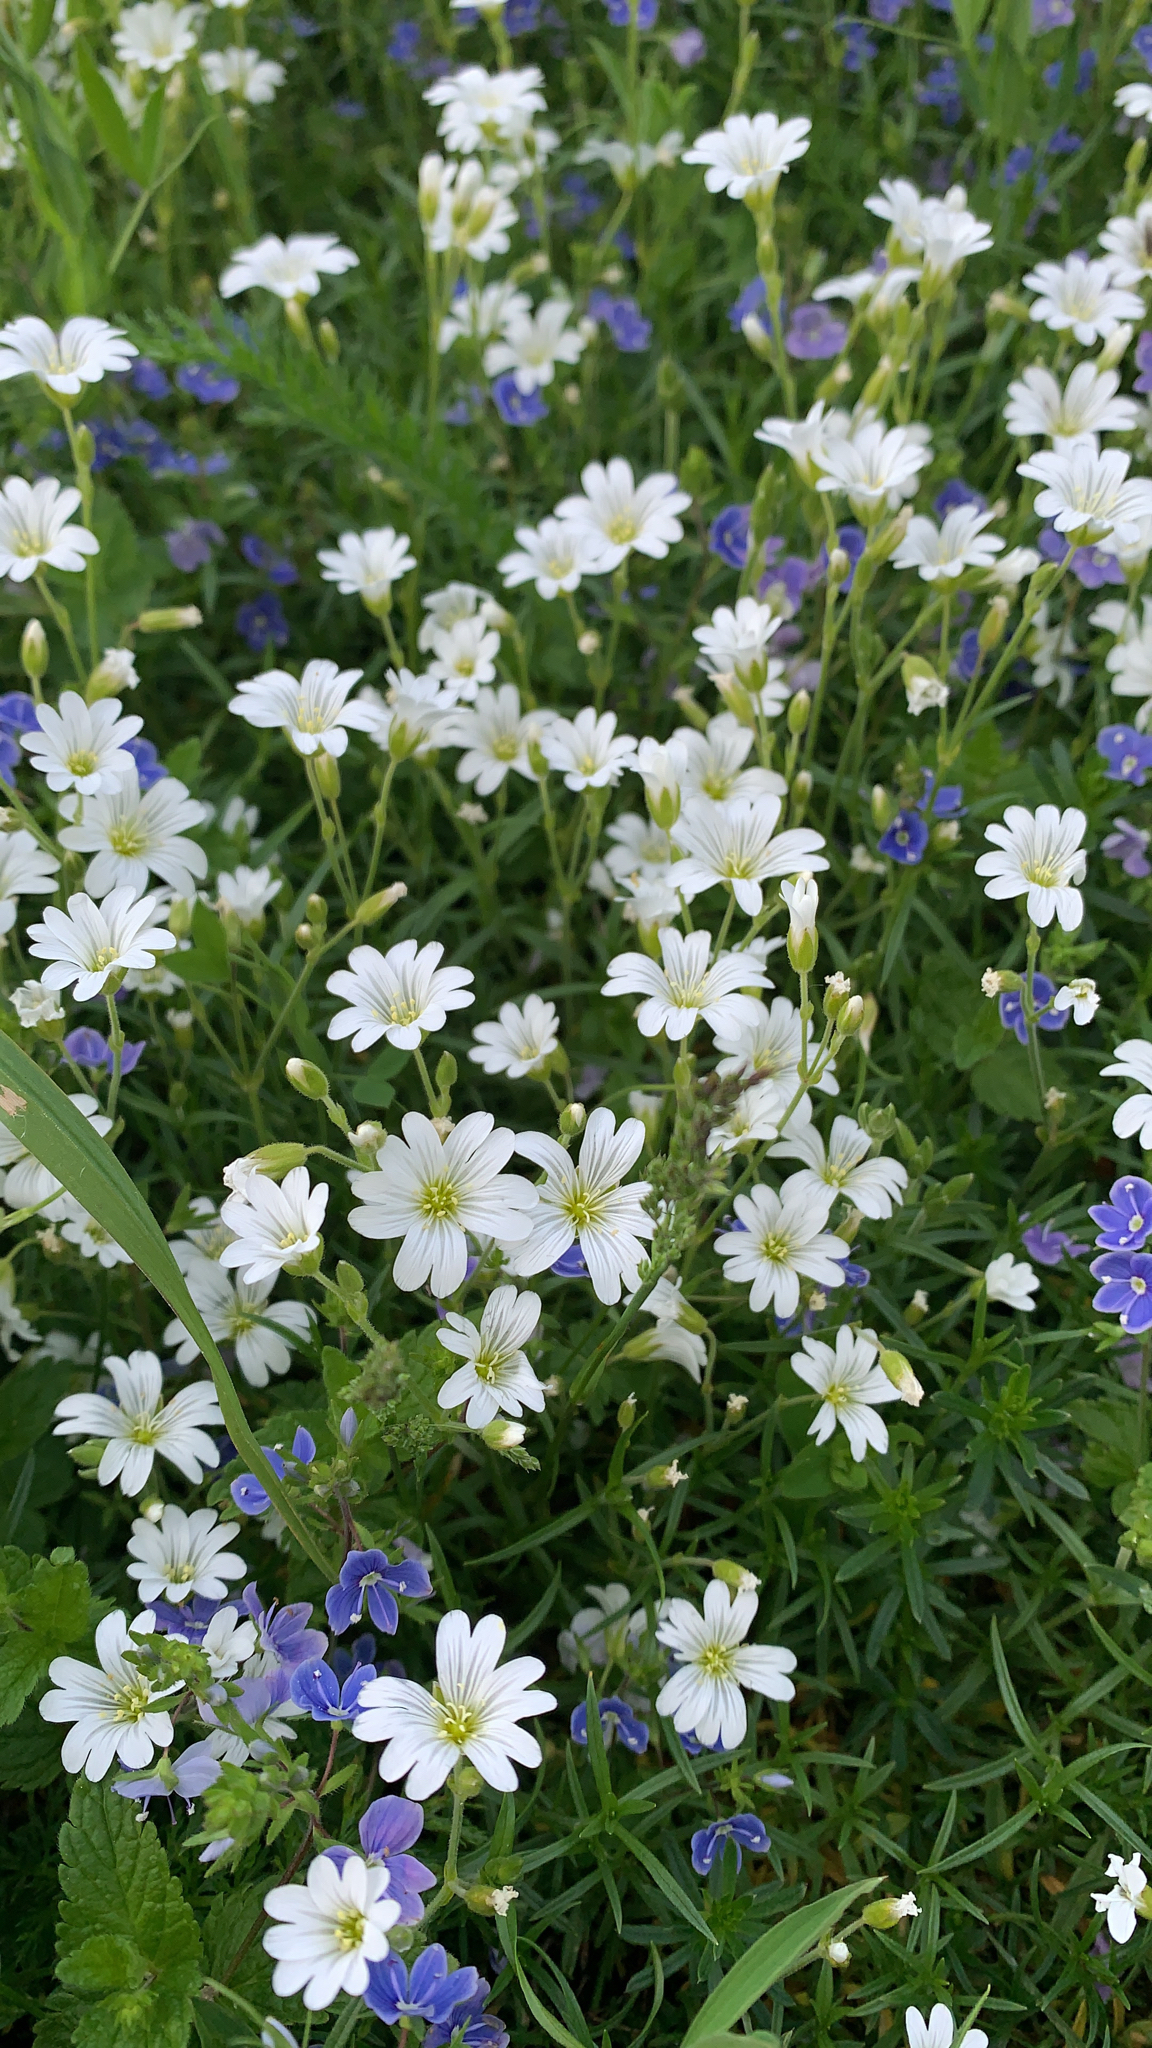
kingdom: Plantae
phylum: Tracheophyta
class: Magnoliopsida
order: Caryophyllales
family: Caryophyllaceae
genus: Cerastium
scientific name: Cerastium arvense
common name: Field mouse-ear
